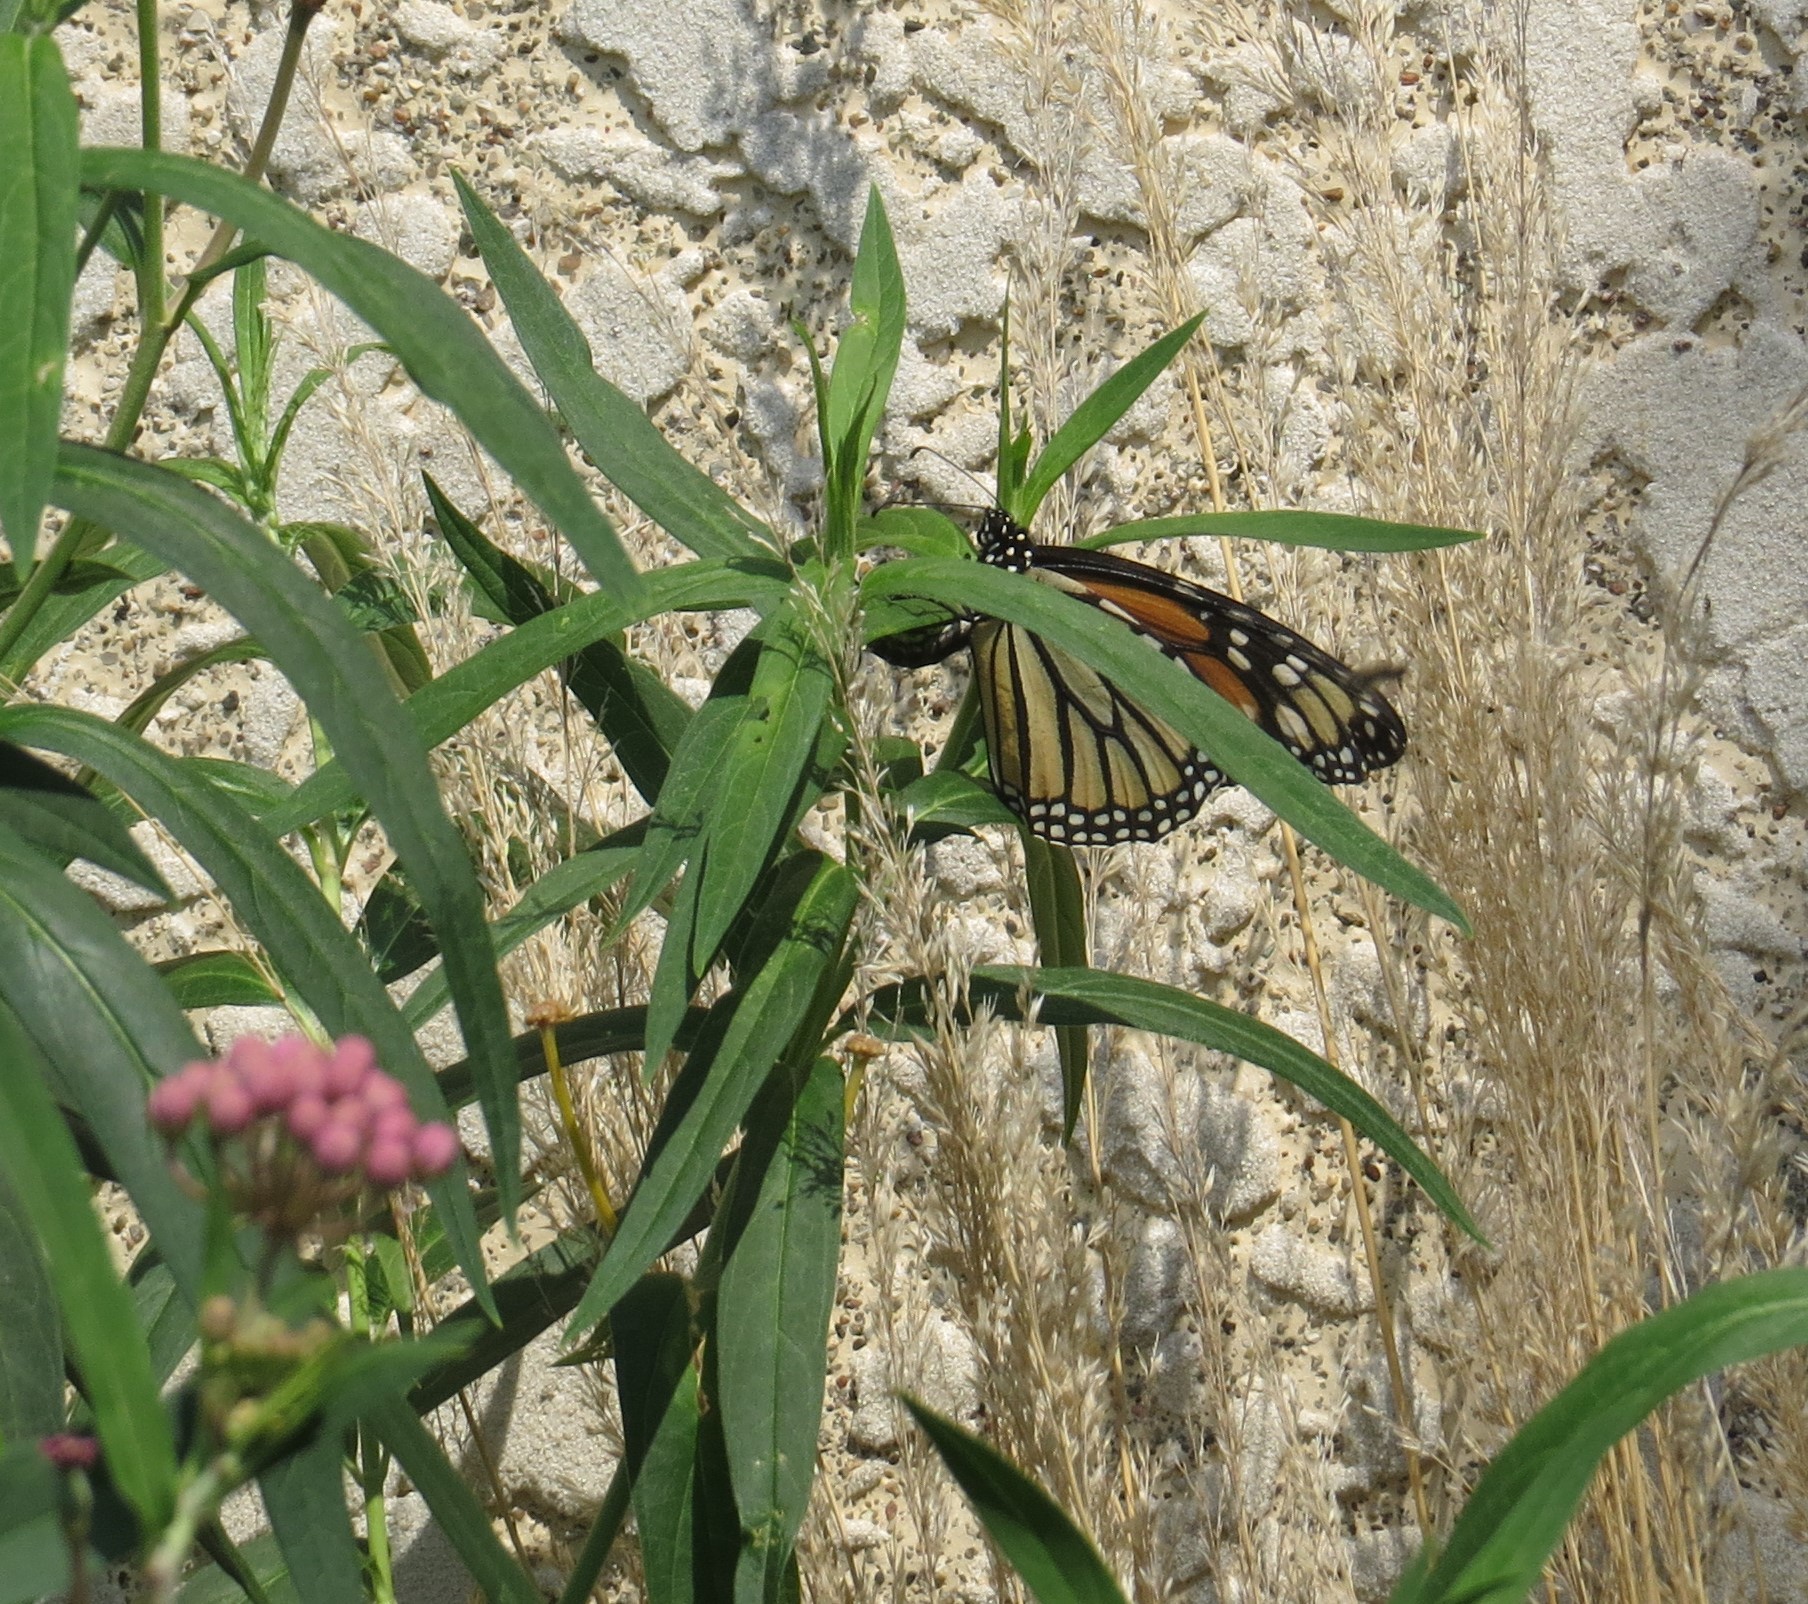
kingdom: Animalia
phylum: Arthropoda
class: Insecta
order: Lepidoptera
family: Nymphalidae
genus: Danaus
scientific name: Danaus plexippus
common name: Monarch
